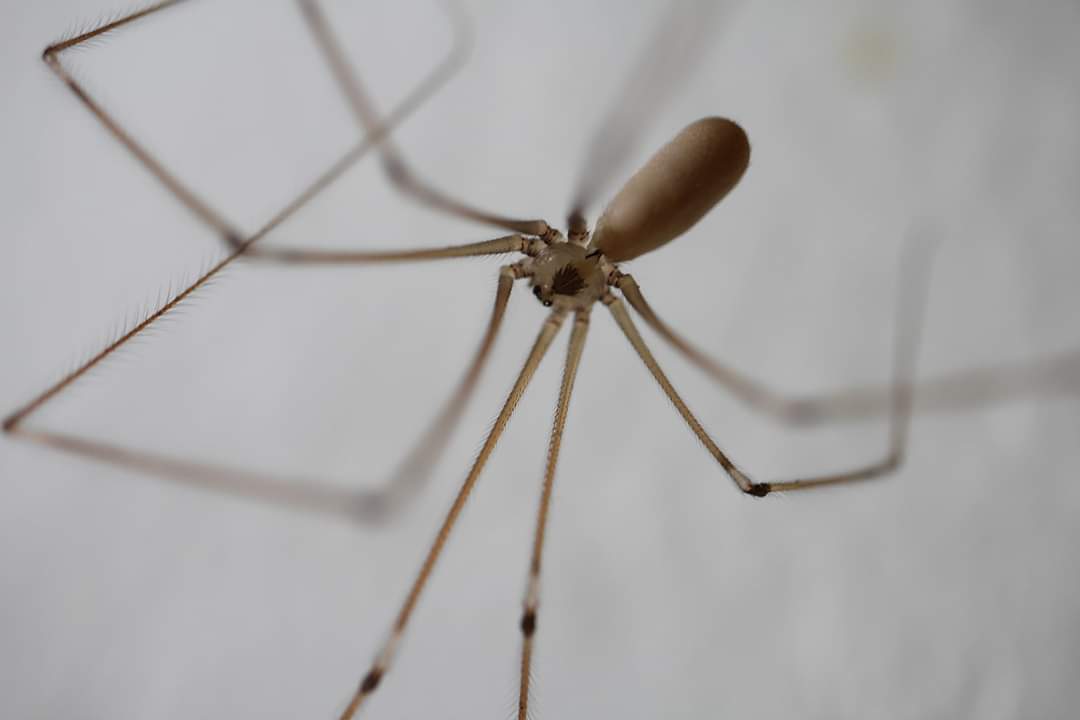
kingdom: Animalia
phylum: Arthropoda
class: Arachnida
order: Araneae
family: Pholcidae
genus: Pholcus
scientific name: Pholcus phalangioides
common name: Longbodied cellar spider
